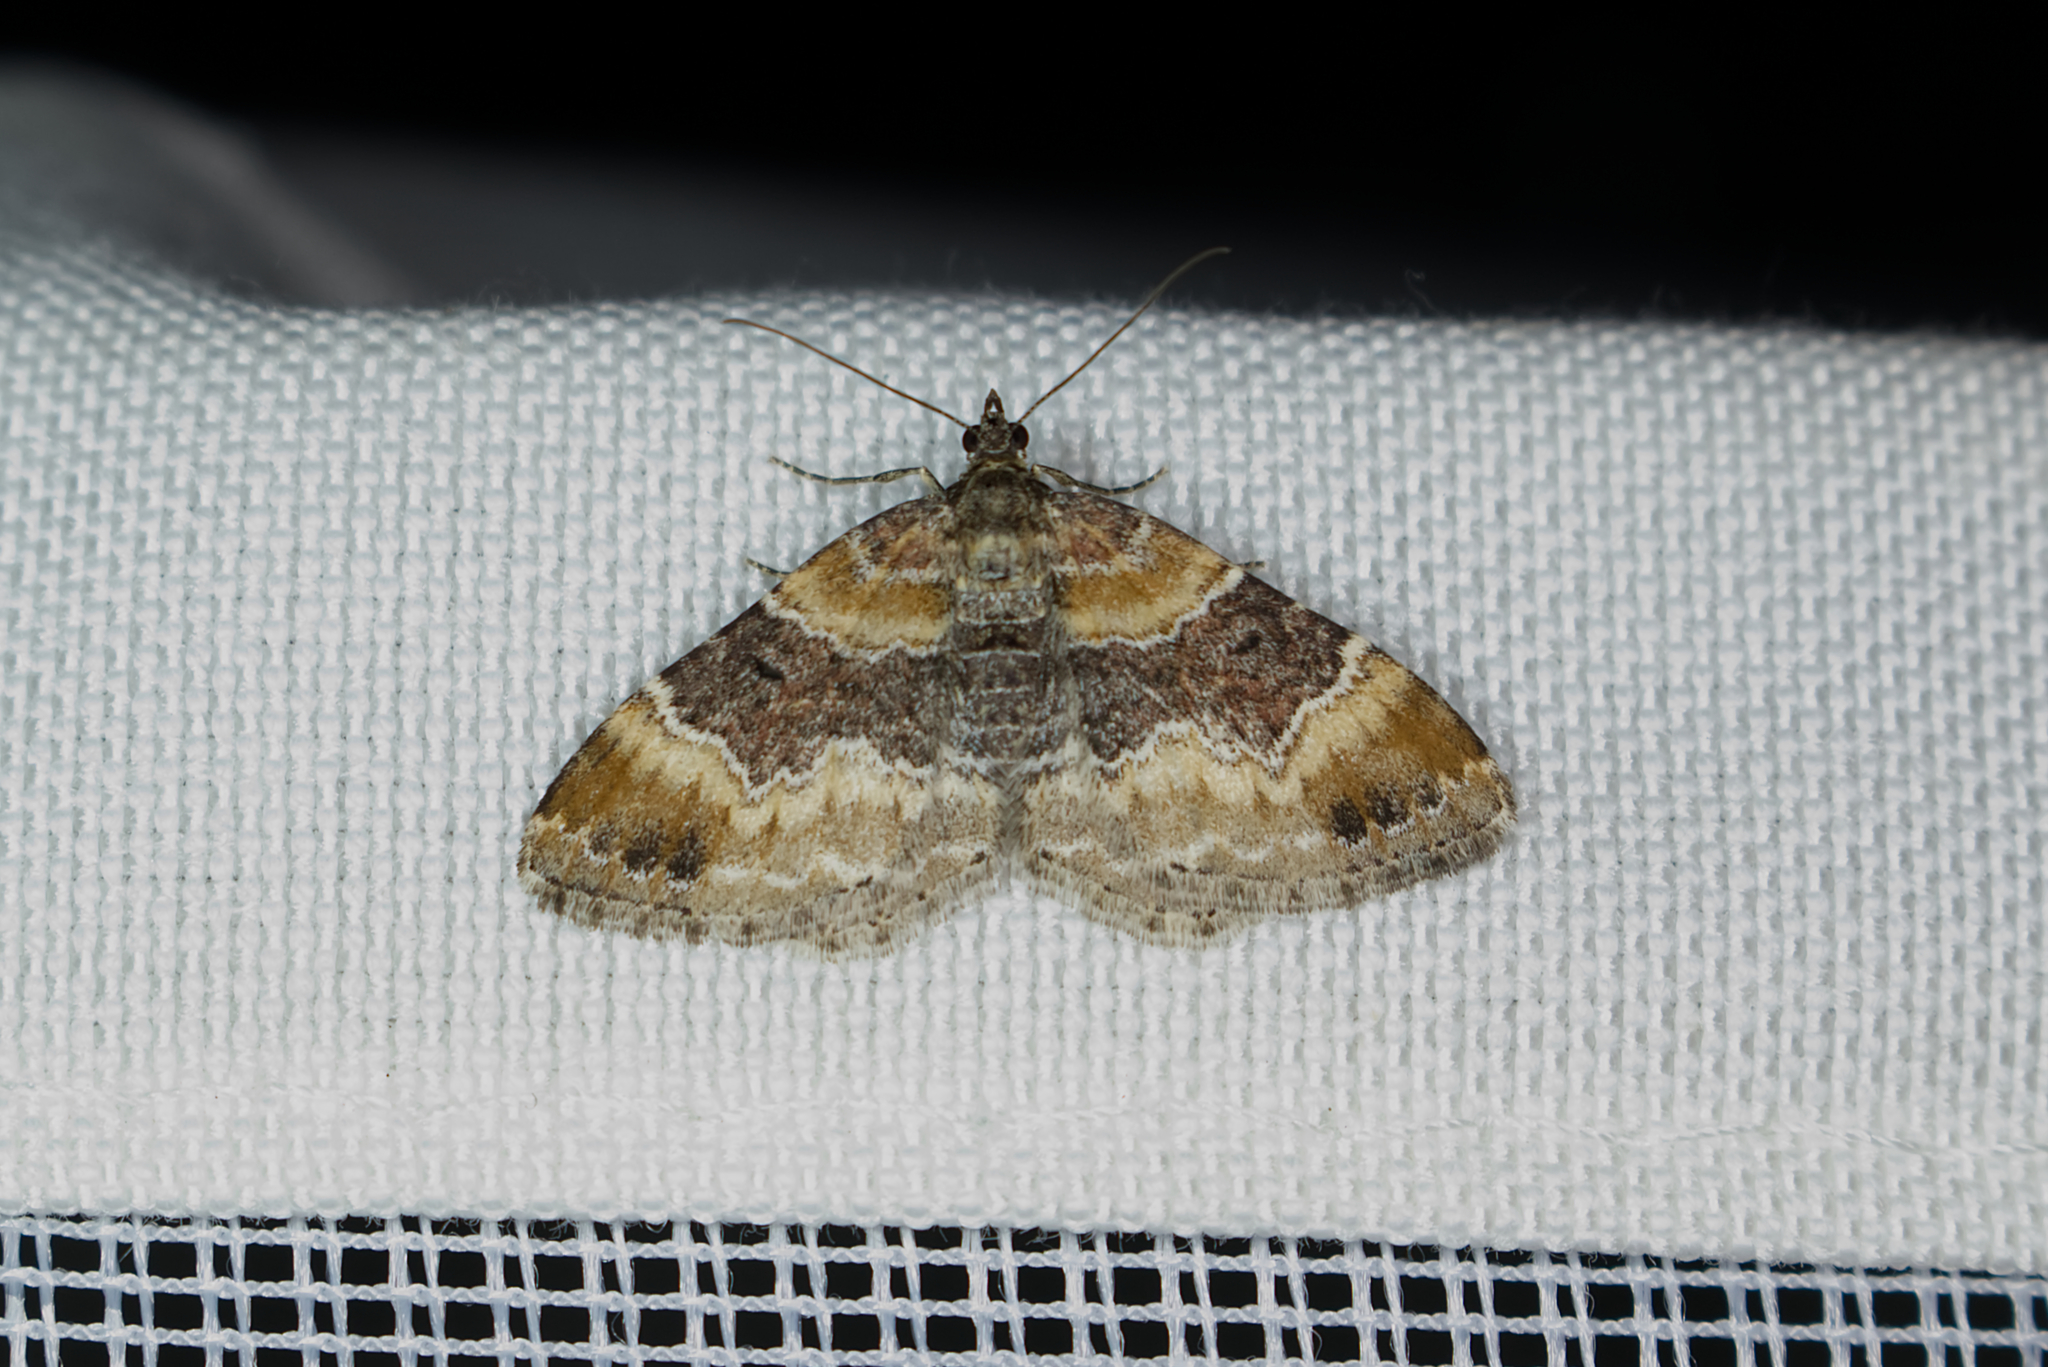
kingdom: Animalia
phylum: Arthropoda
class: Insecta
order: Lepidoptera
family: Geometridae
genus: Xanthorhoe
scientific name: Xanthorhoe spadicearia
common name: Red twin-spot carpet
